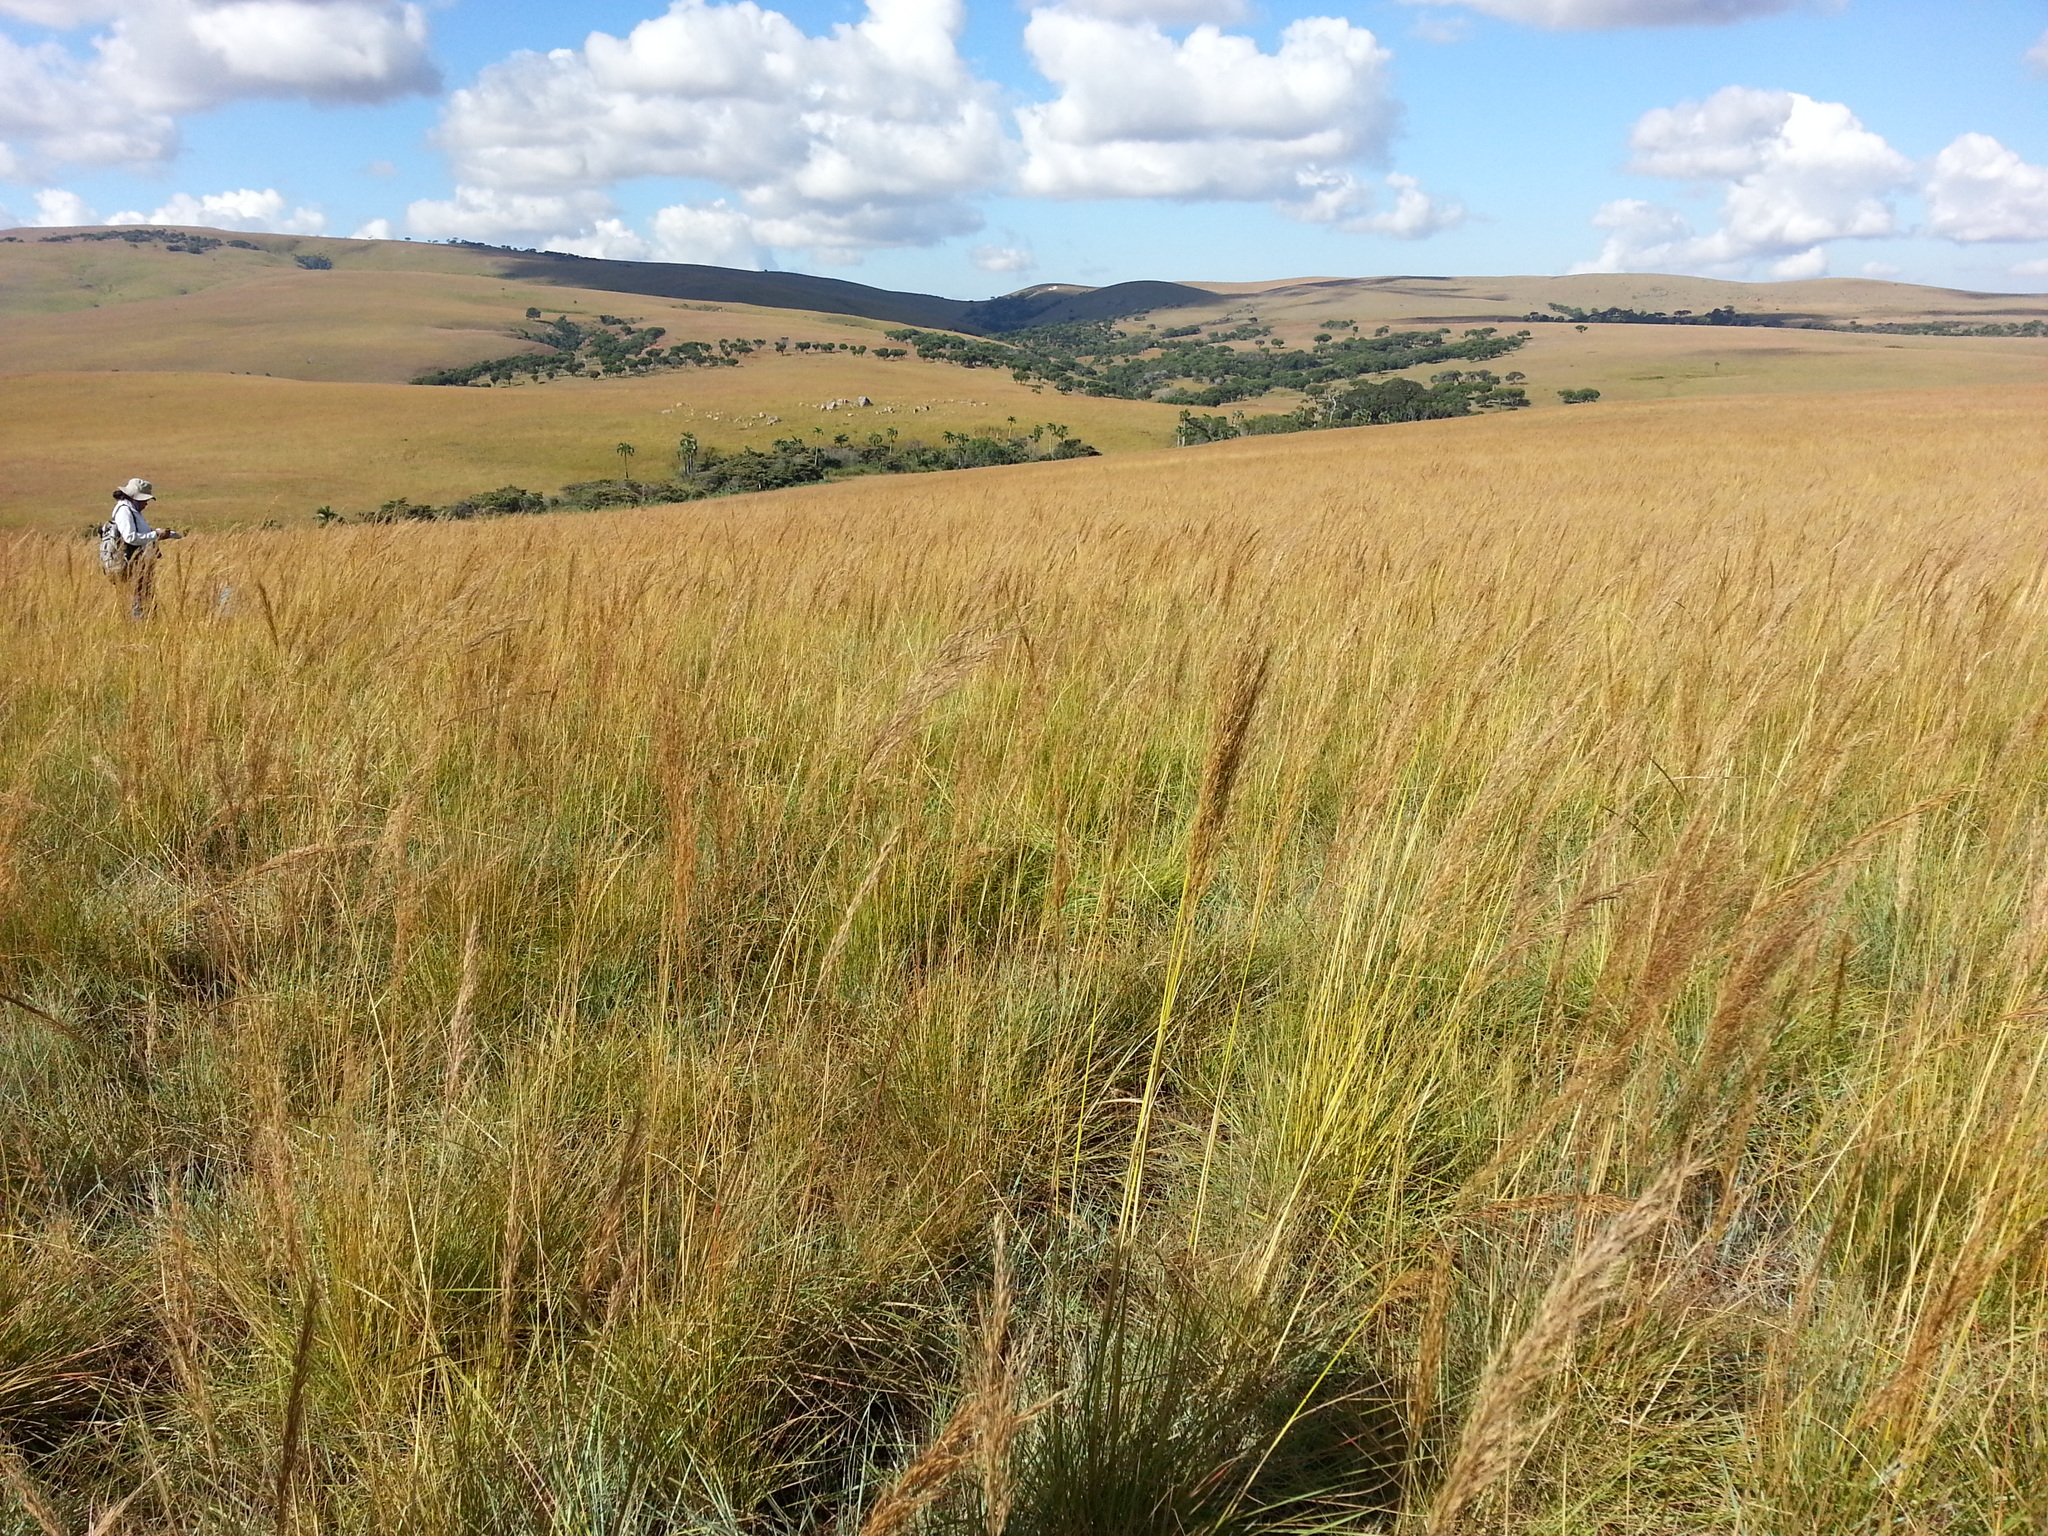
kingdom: Plantae
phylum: Tracheophyta
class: Liliopsida
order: Poales
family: Poaceae
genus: Loudetia
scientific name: Loudetia simplex
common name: Common russet grass
